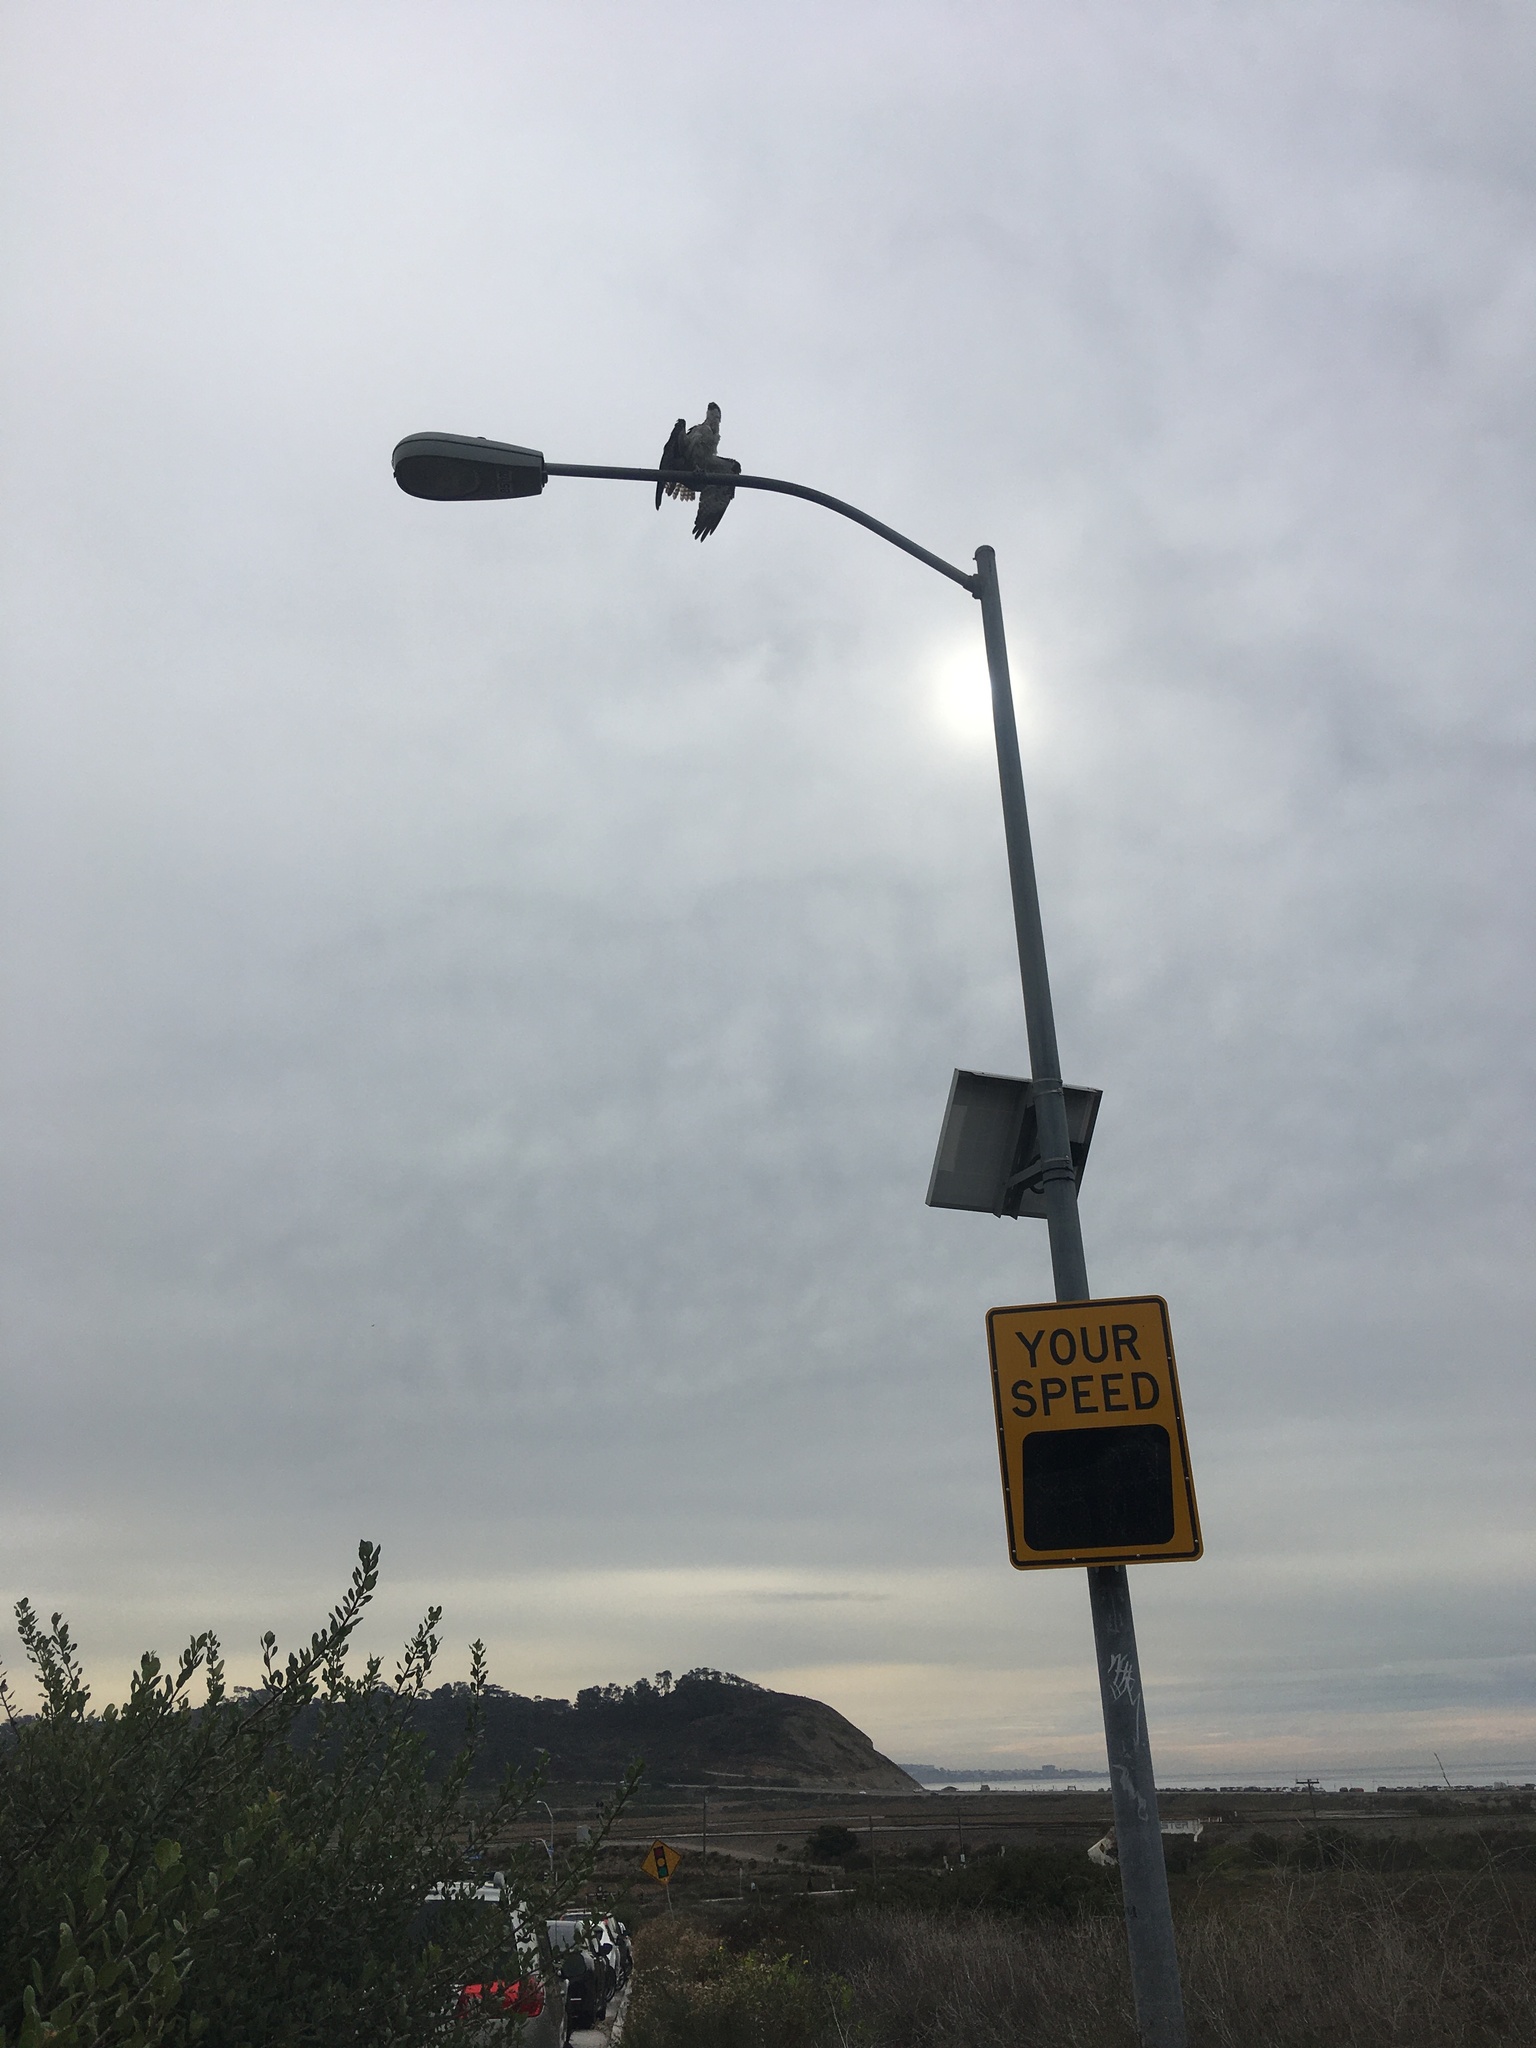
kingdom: Animalia
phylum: Chordata
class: Aves
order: Accipitriformes
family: Pandionidae
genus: Pandion
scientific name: Pandion haliaetus
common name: Osprey
